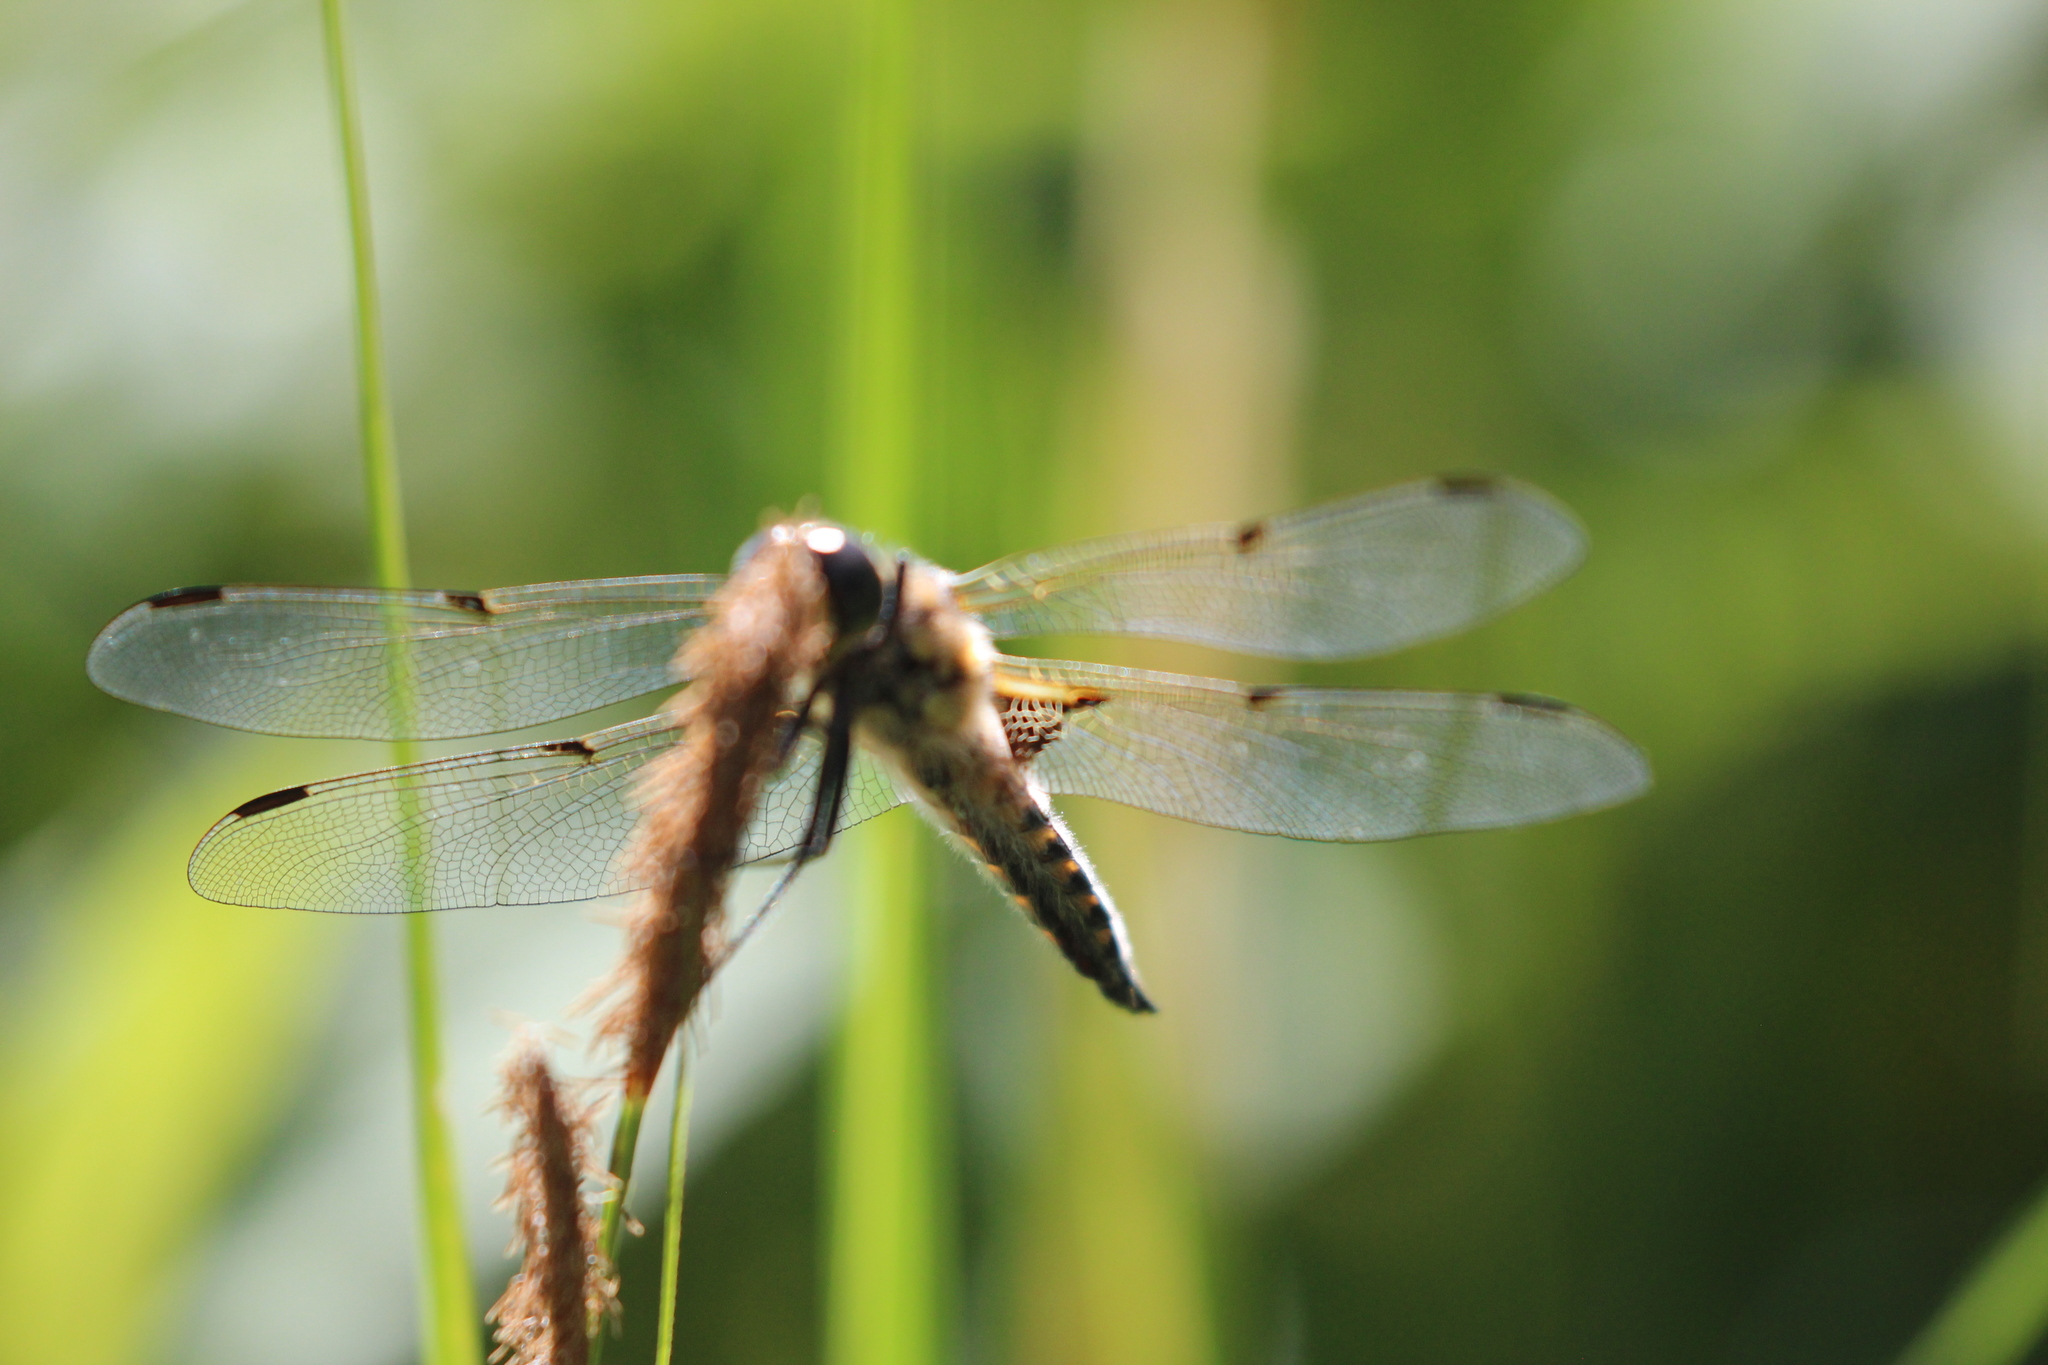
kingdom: Animalia
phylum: Arthropoda
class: Insecta
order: Odonata
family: Libellulidae
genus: Libellula
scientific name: Libellula quadrimaculata
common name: Four-spotted chaser
